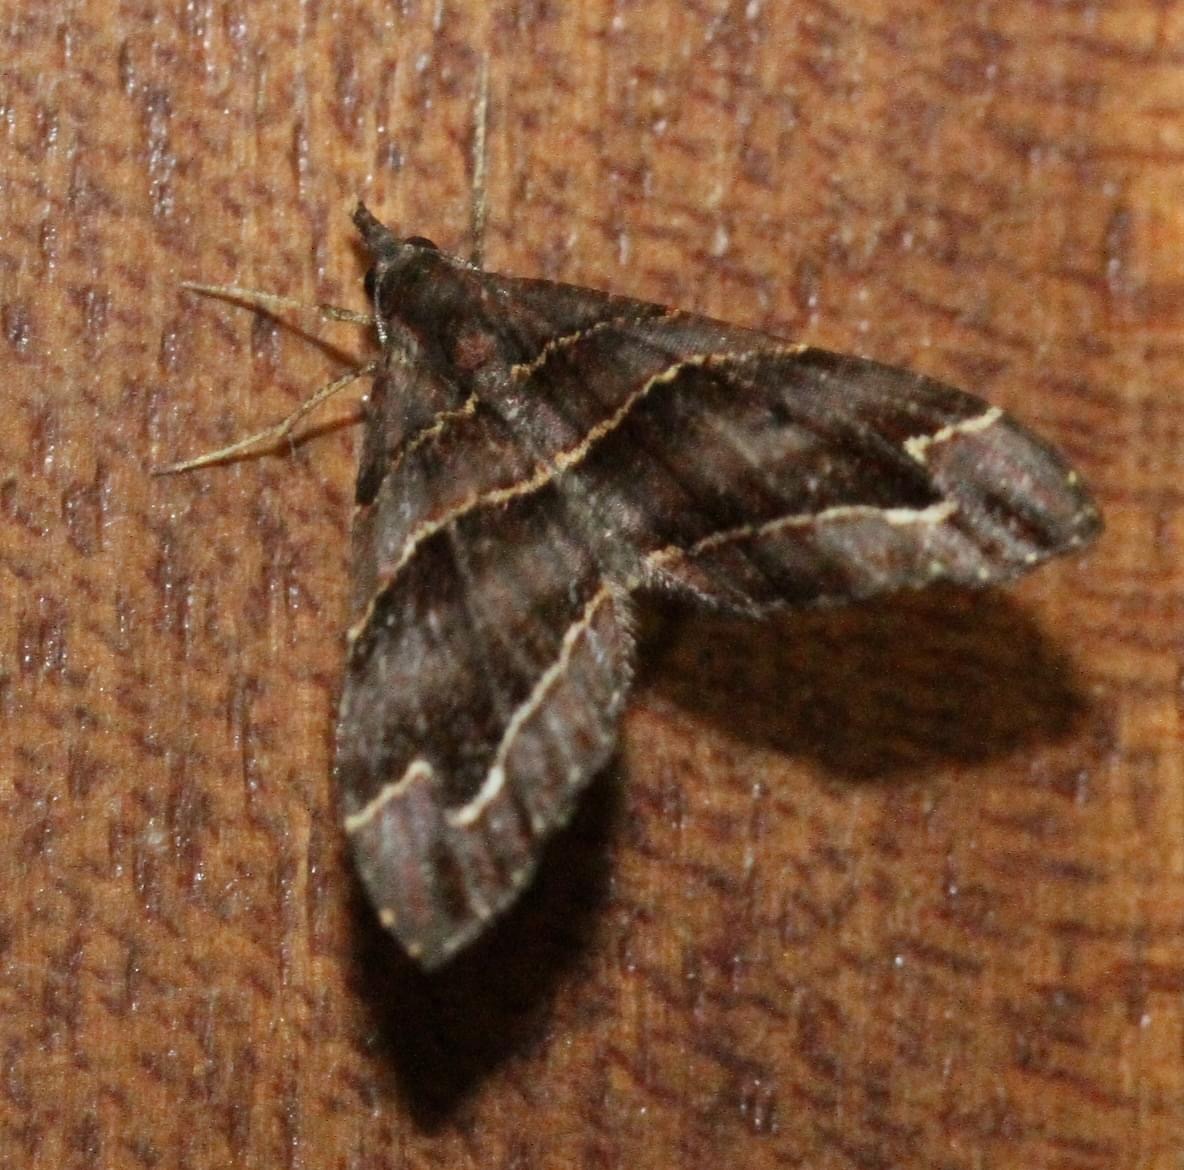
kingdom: Animalia
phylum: Arthropoda
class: Insecta
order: Lepidoptera
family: Geometridae
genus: Psaliodes
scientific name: Psaliodes cronia
